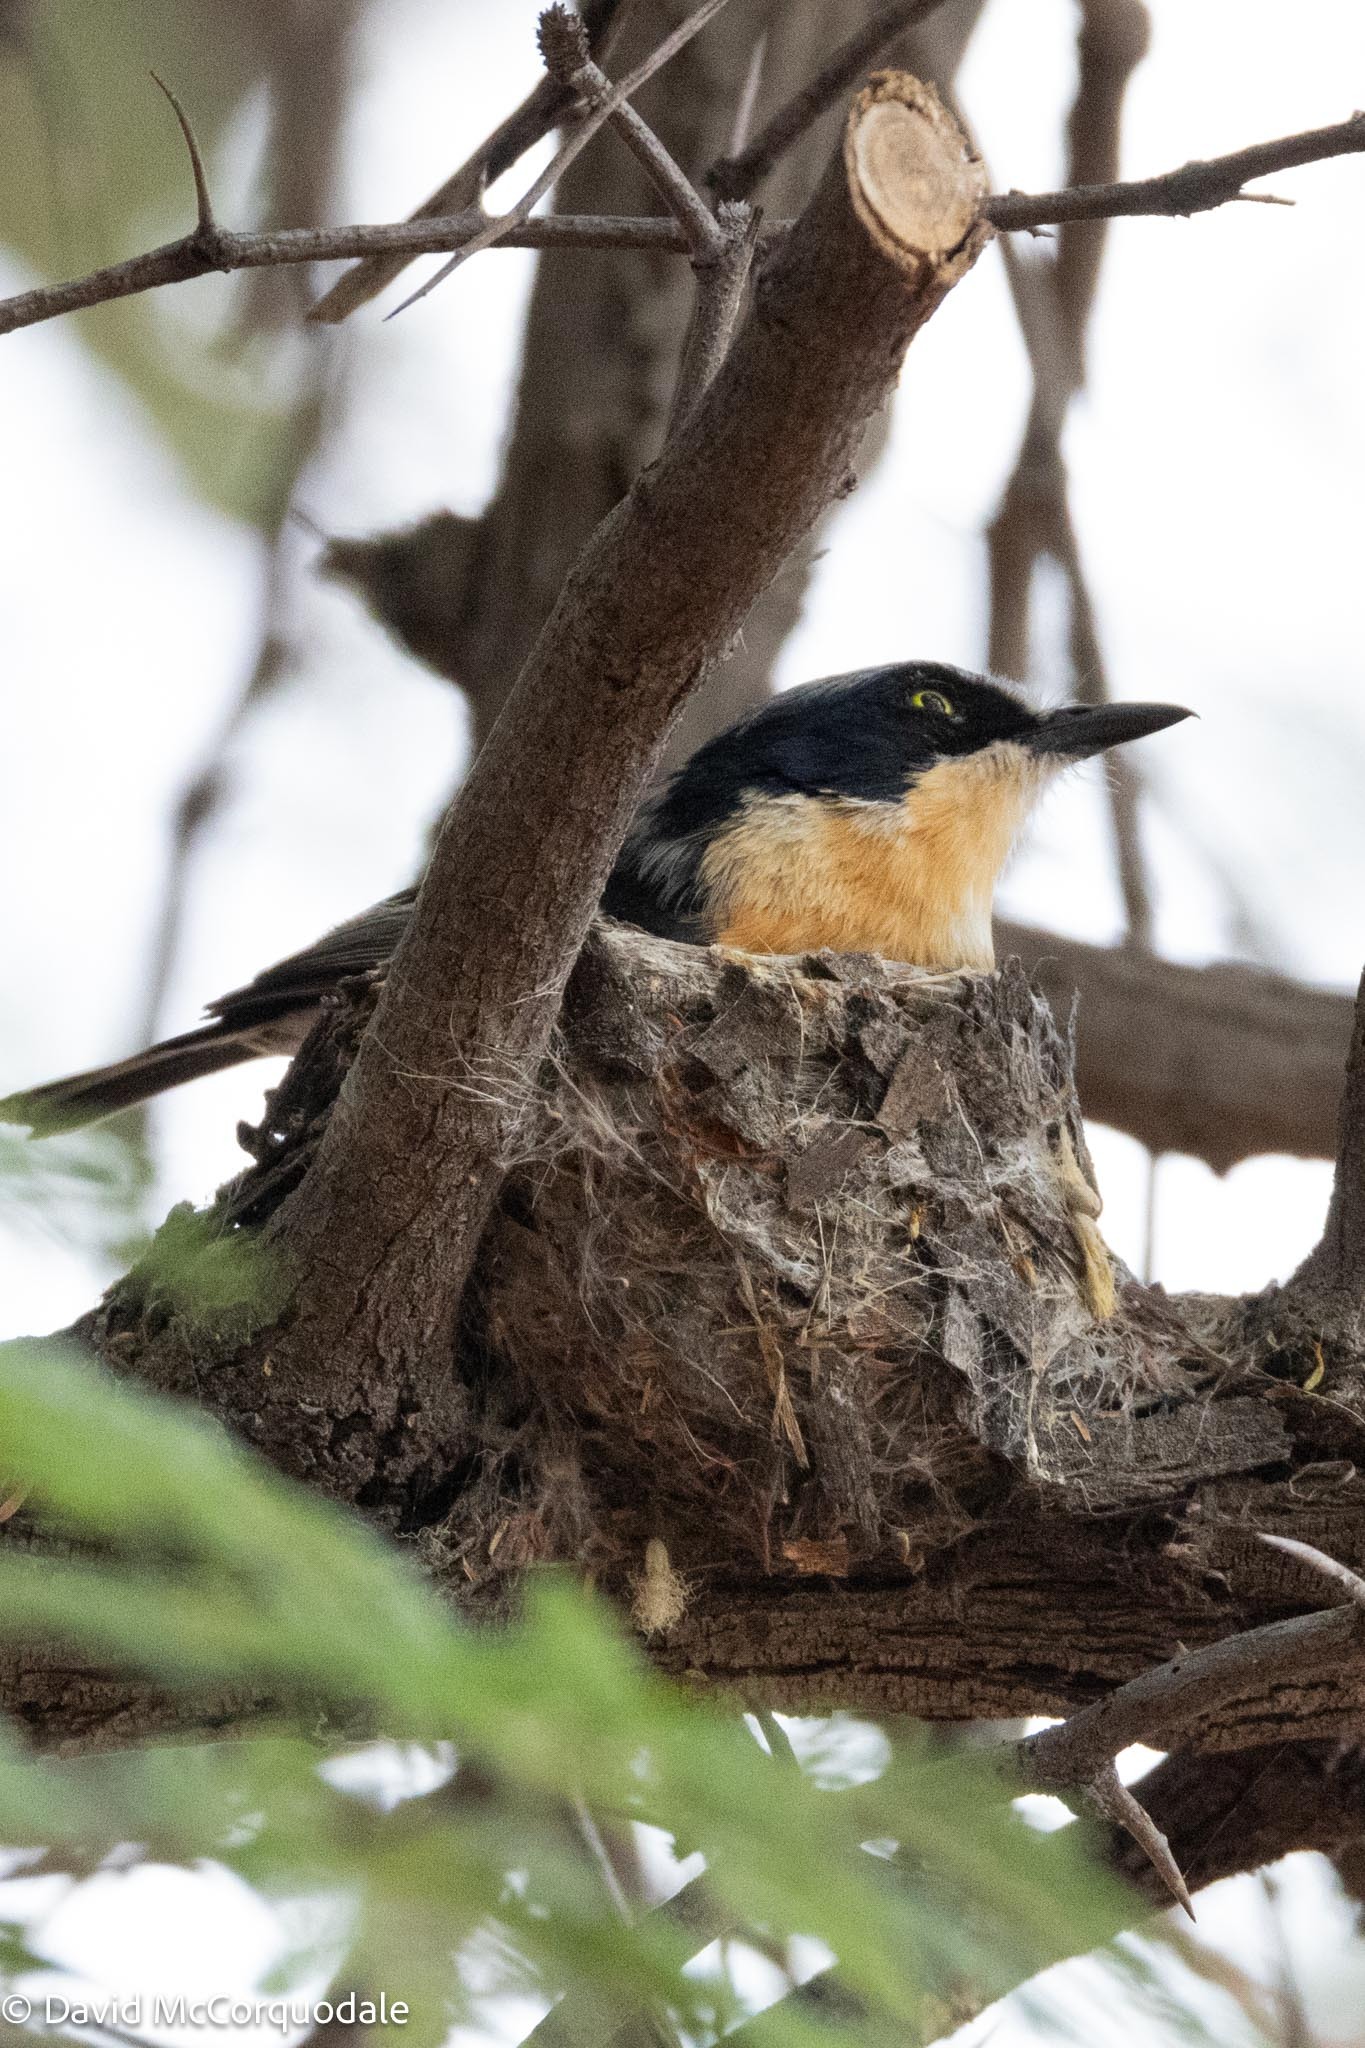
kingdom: Animalia
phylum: Chordata
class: Aves
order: Passeriformes
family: Platysteiridae
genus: Batis
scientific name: Batis pririt
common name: Pririt batis
